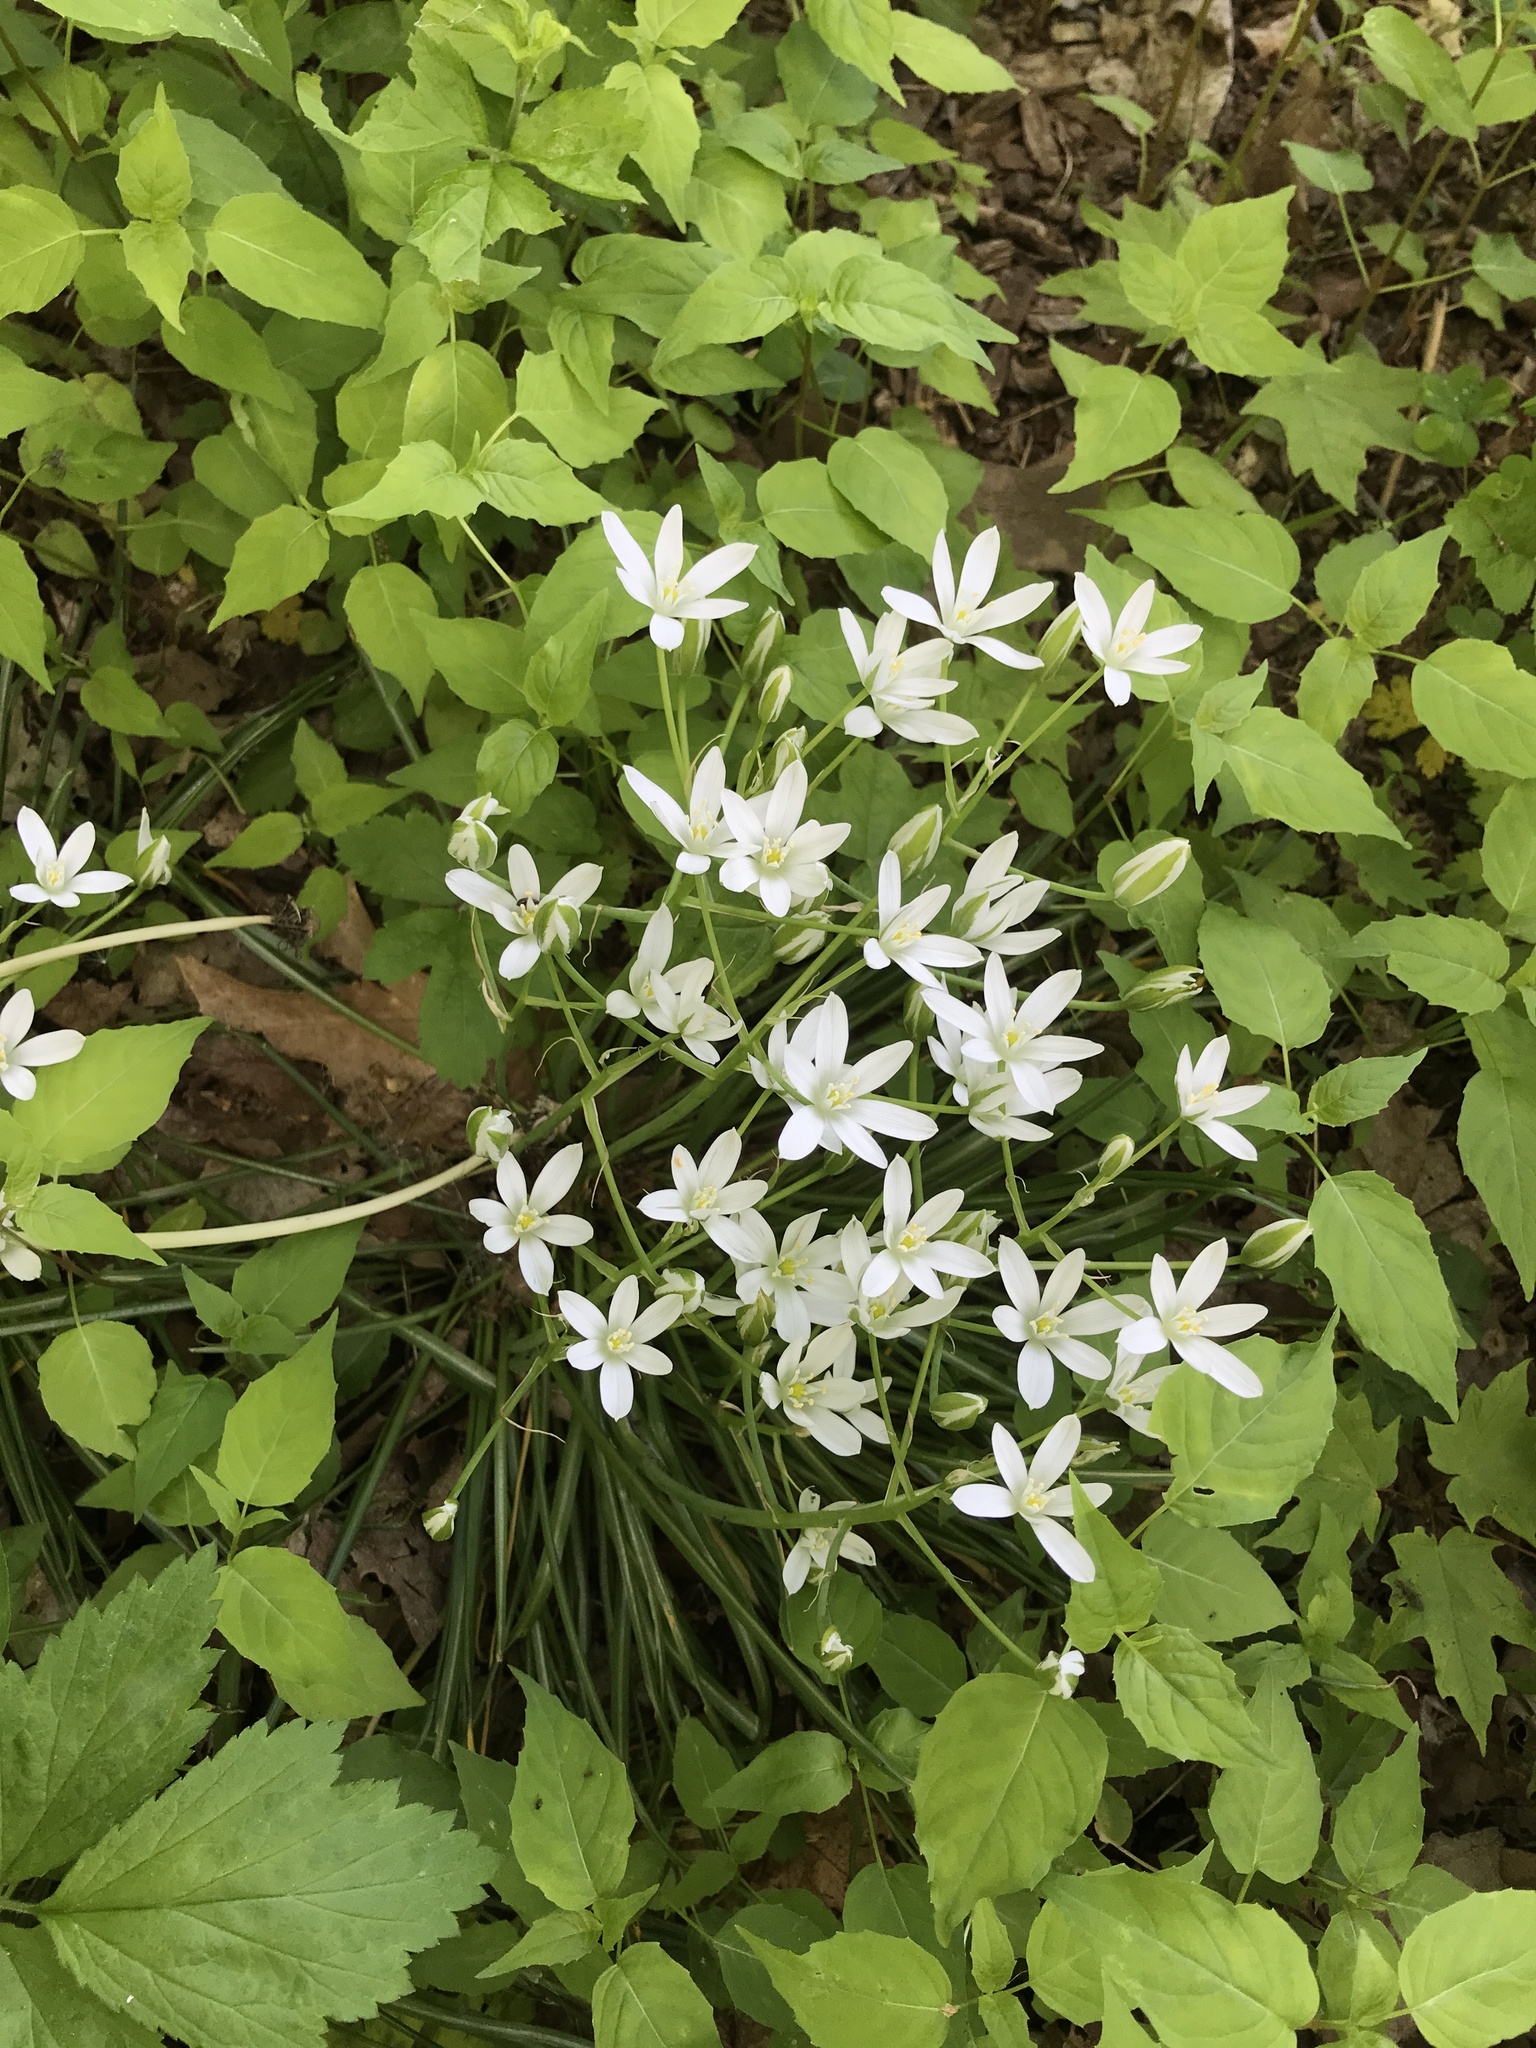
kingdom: Plantae
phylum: Tracheophyta
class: Liliopsida
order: Asparagales
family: Asparagaceae
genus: Ornithogalum
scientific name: Ornithogalum umbellatum
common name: Garden star-of-bethlehem
